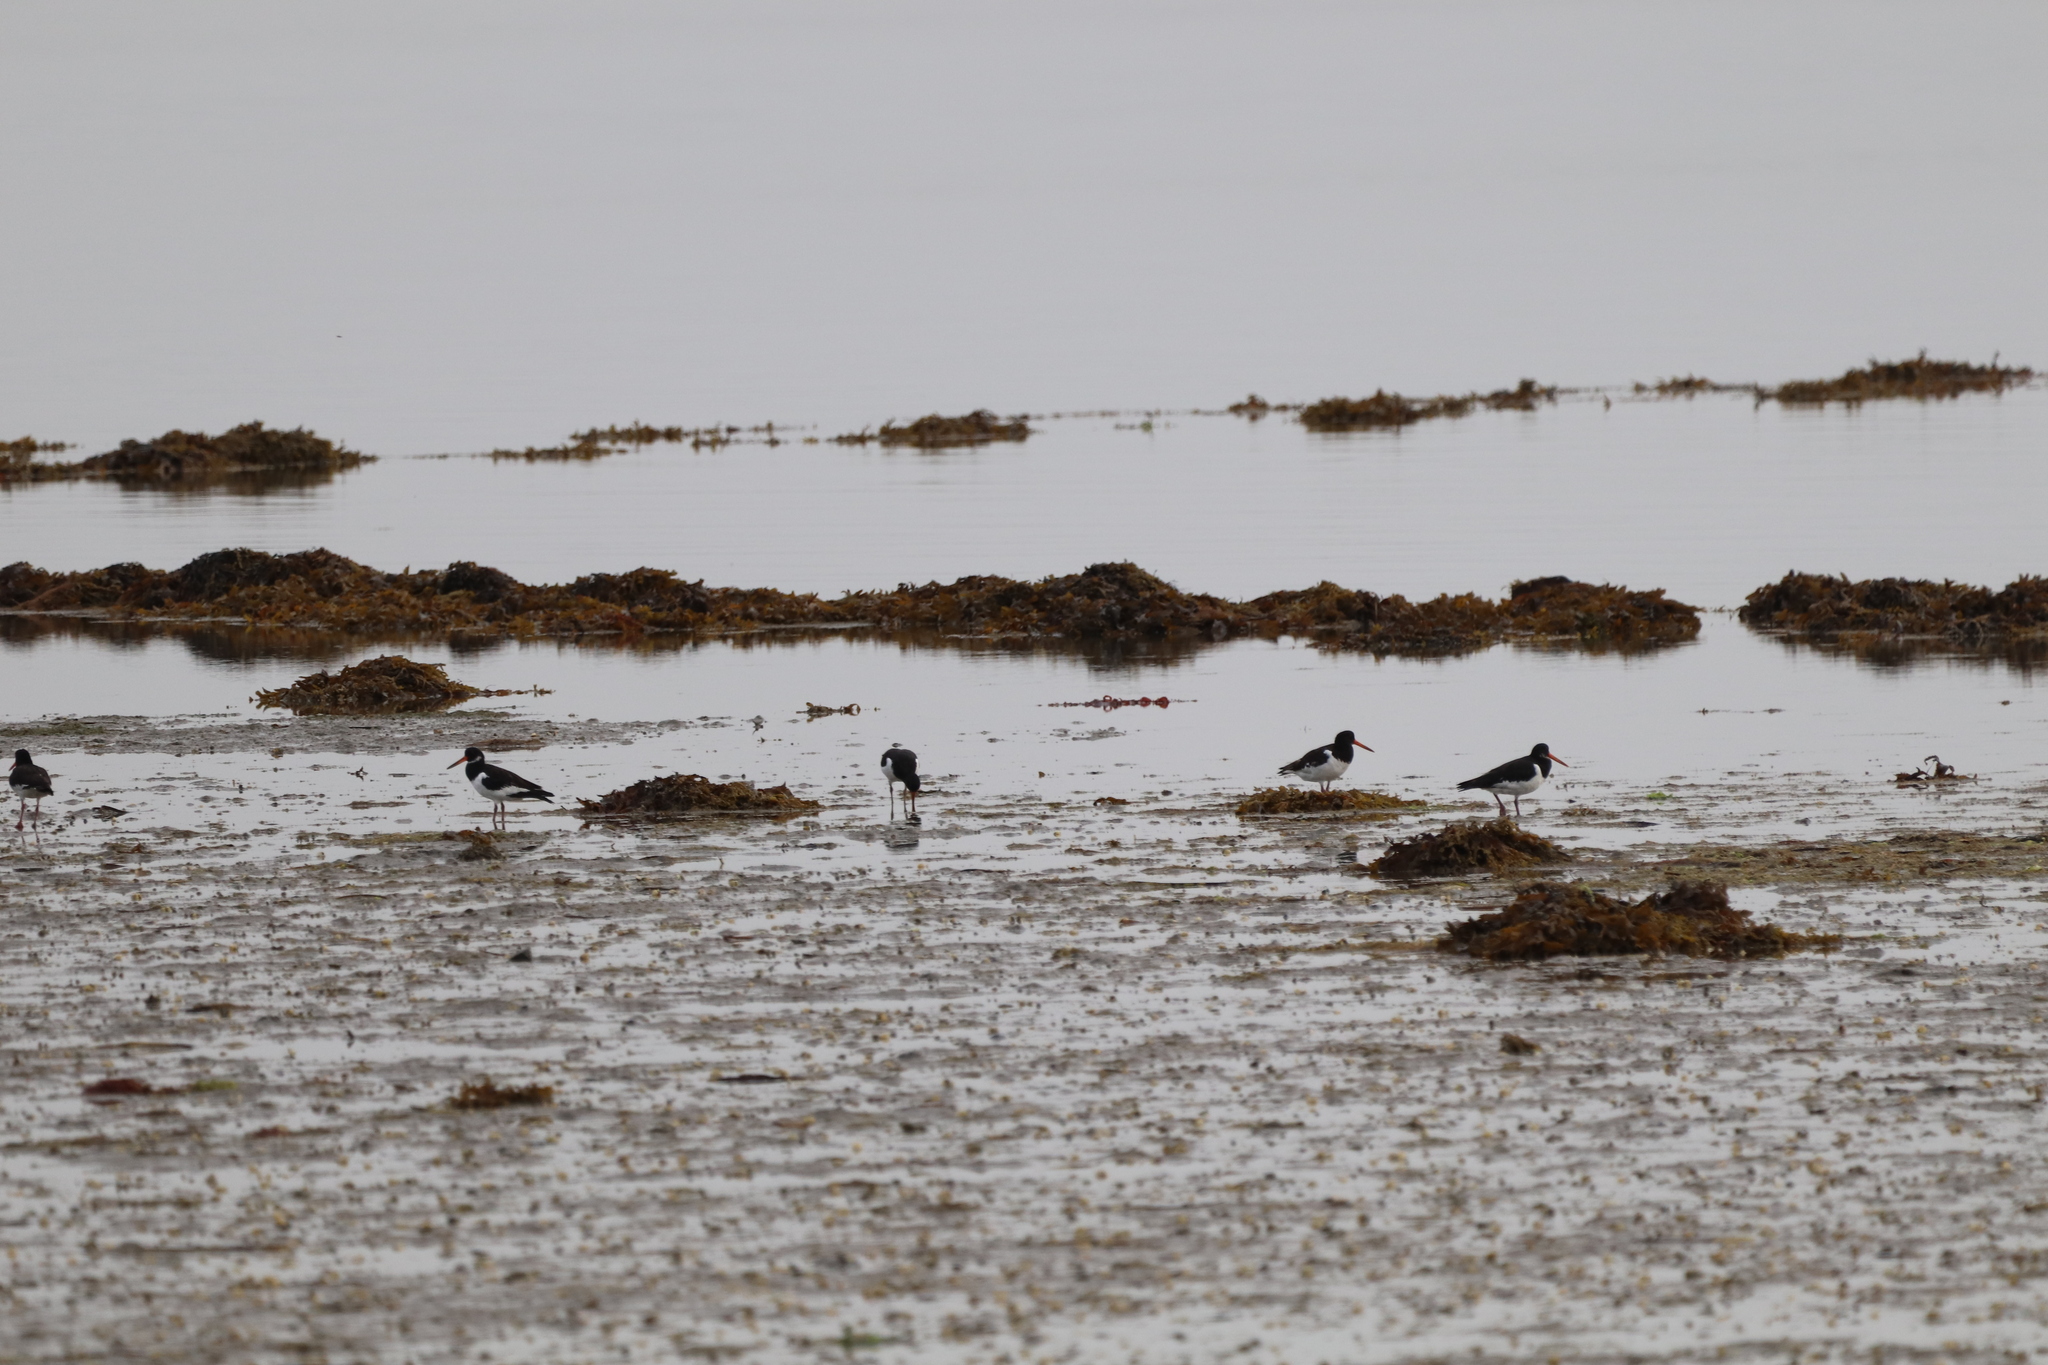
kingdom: Animalia
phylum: Chordata
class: Aves
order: Charadriiformes
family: Haematopodidae
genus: Haematopus
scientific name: Haematopus ostralegus
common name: Eurasian oystercatcher
